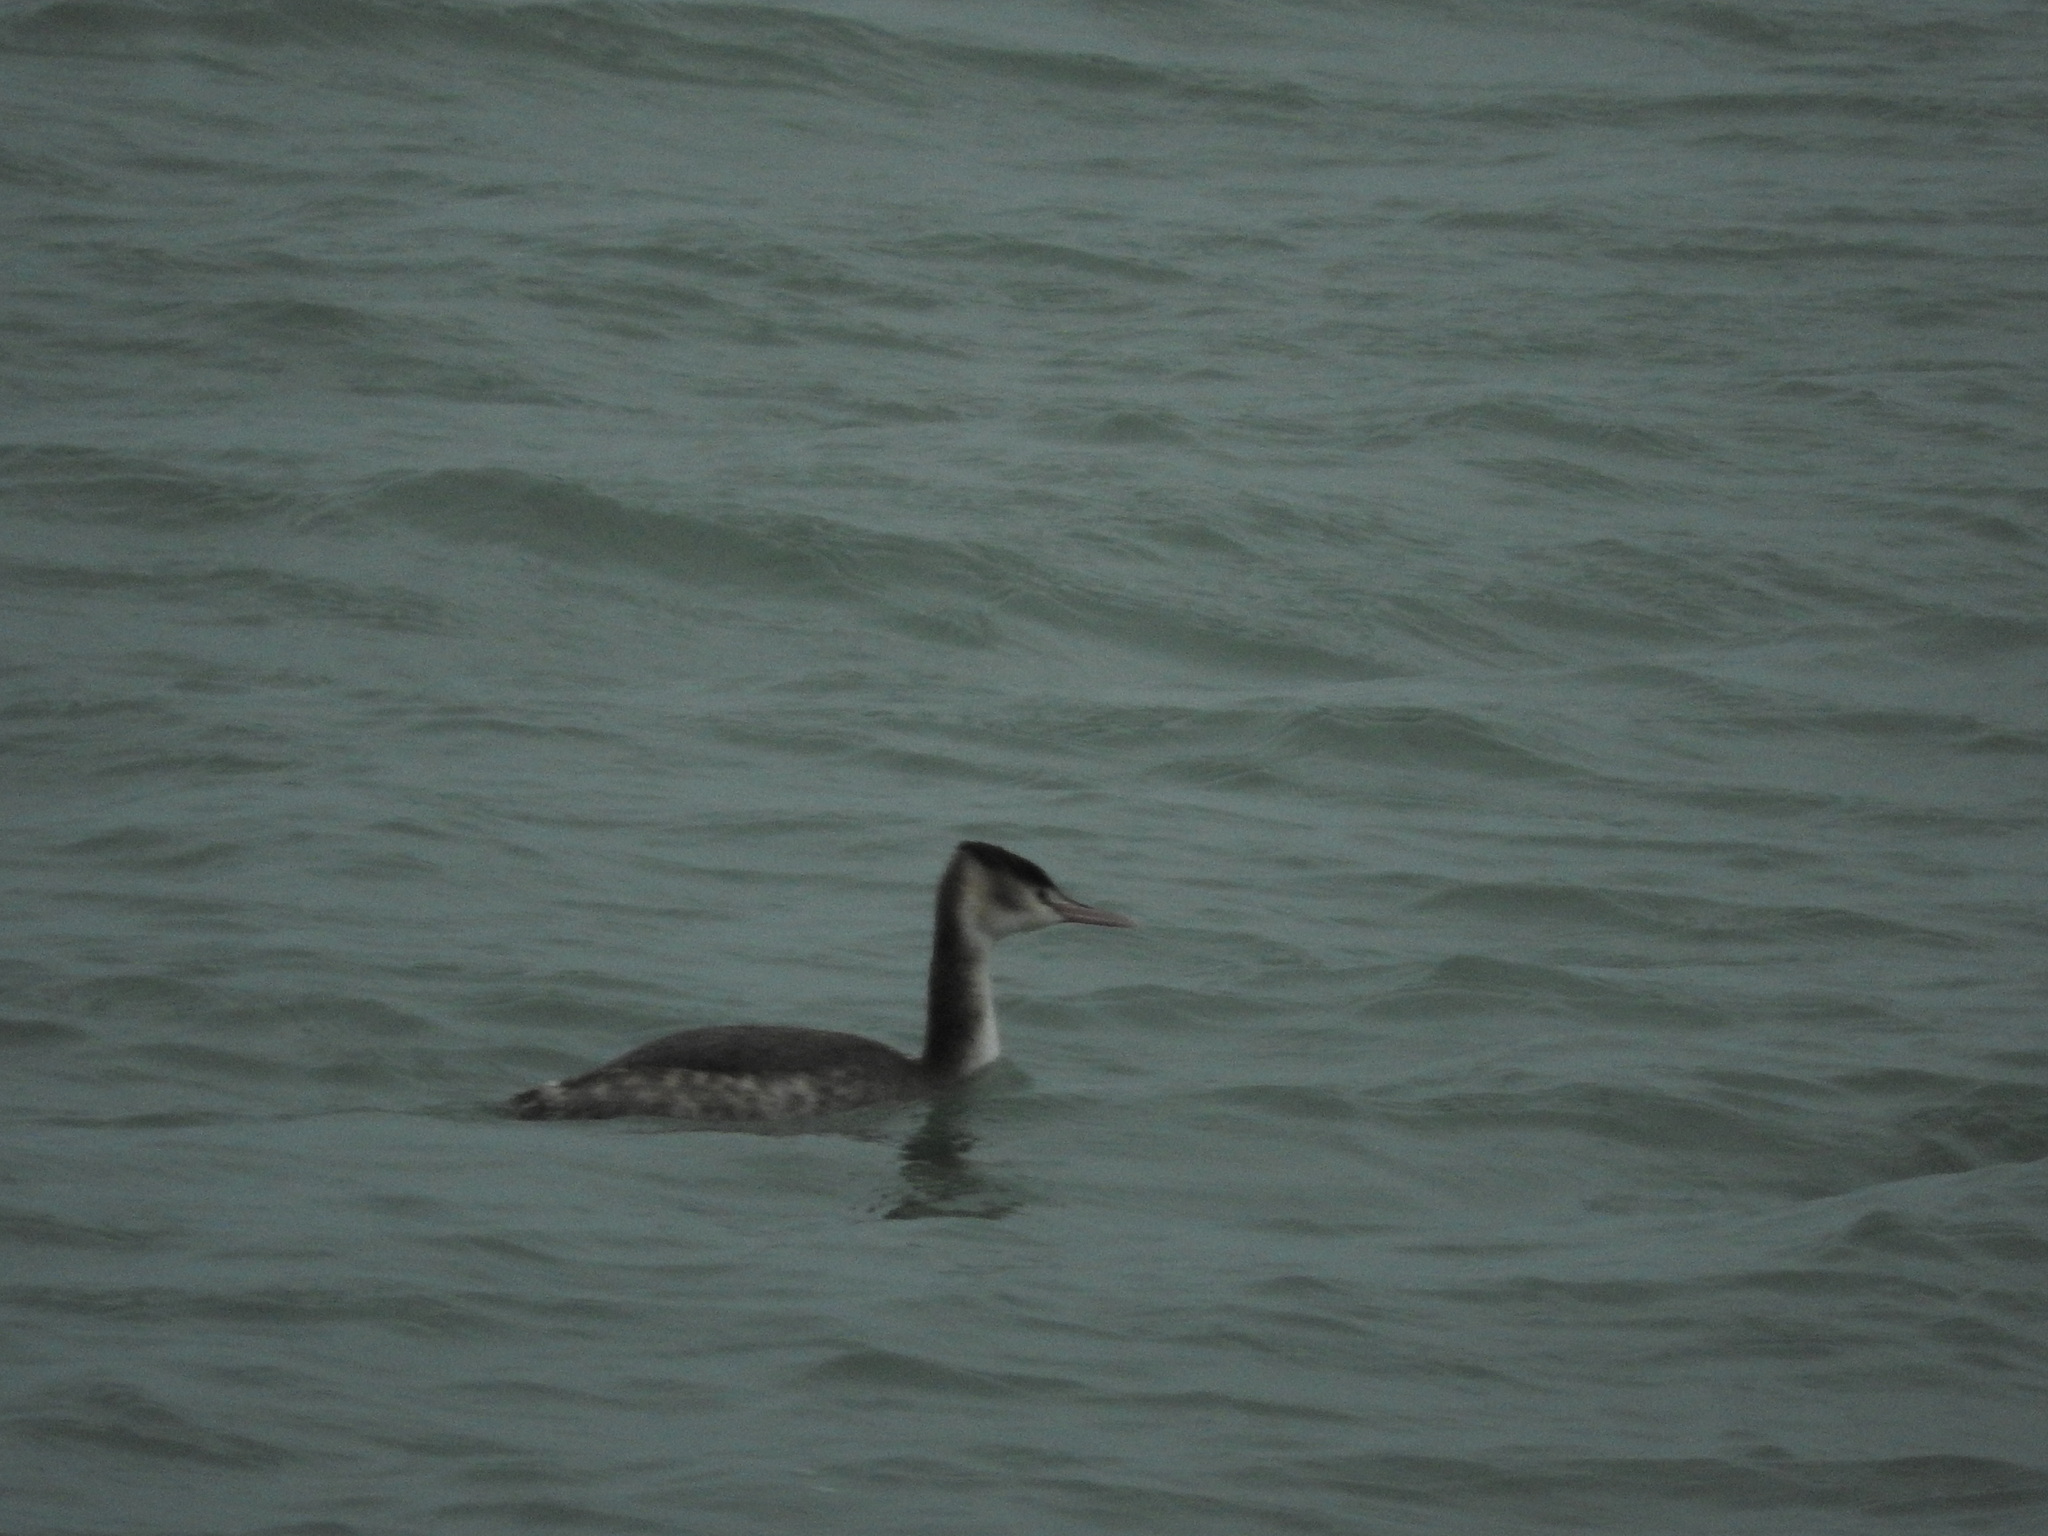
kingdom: Animalia
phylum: Chordata
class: Aves
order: Podicipediformes
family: Podicipedidae
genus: Podiceps
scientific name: Podiceps cristatus
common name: Great crested grebe
